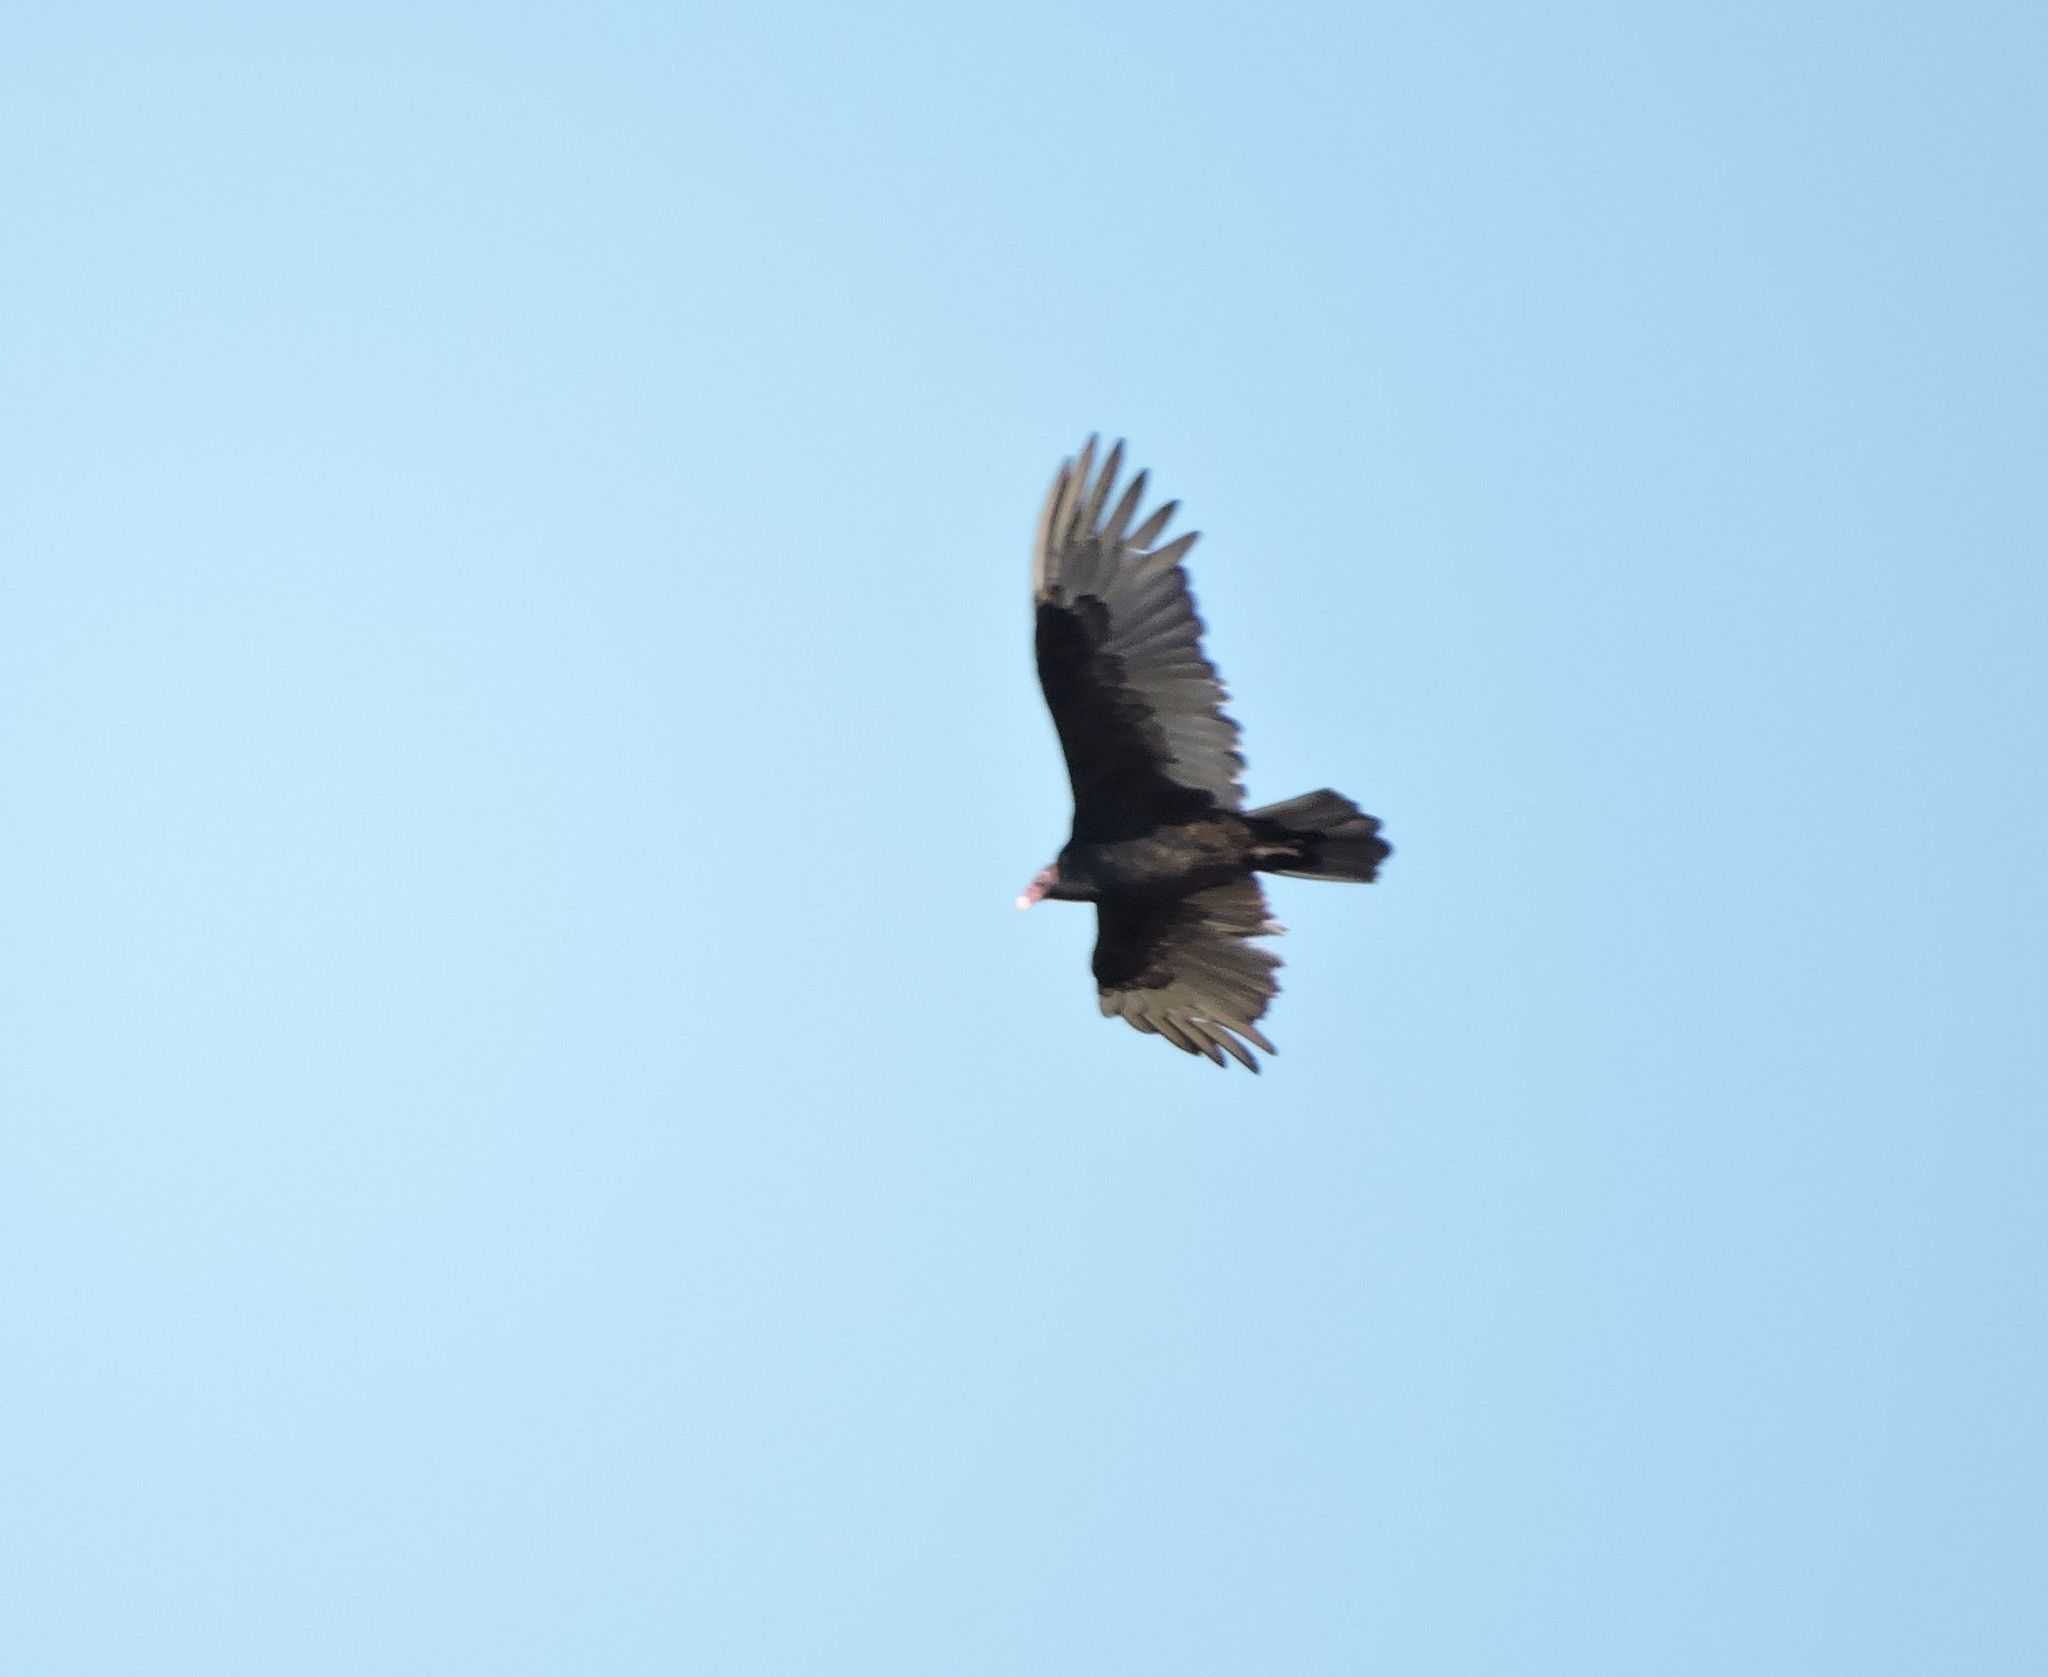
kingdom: Animalia
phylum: Chordata
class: Aves
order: Accipitriformes
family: Cathartidae
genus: Cathartes
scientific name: Cathartes aura
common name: Turkey vulture
